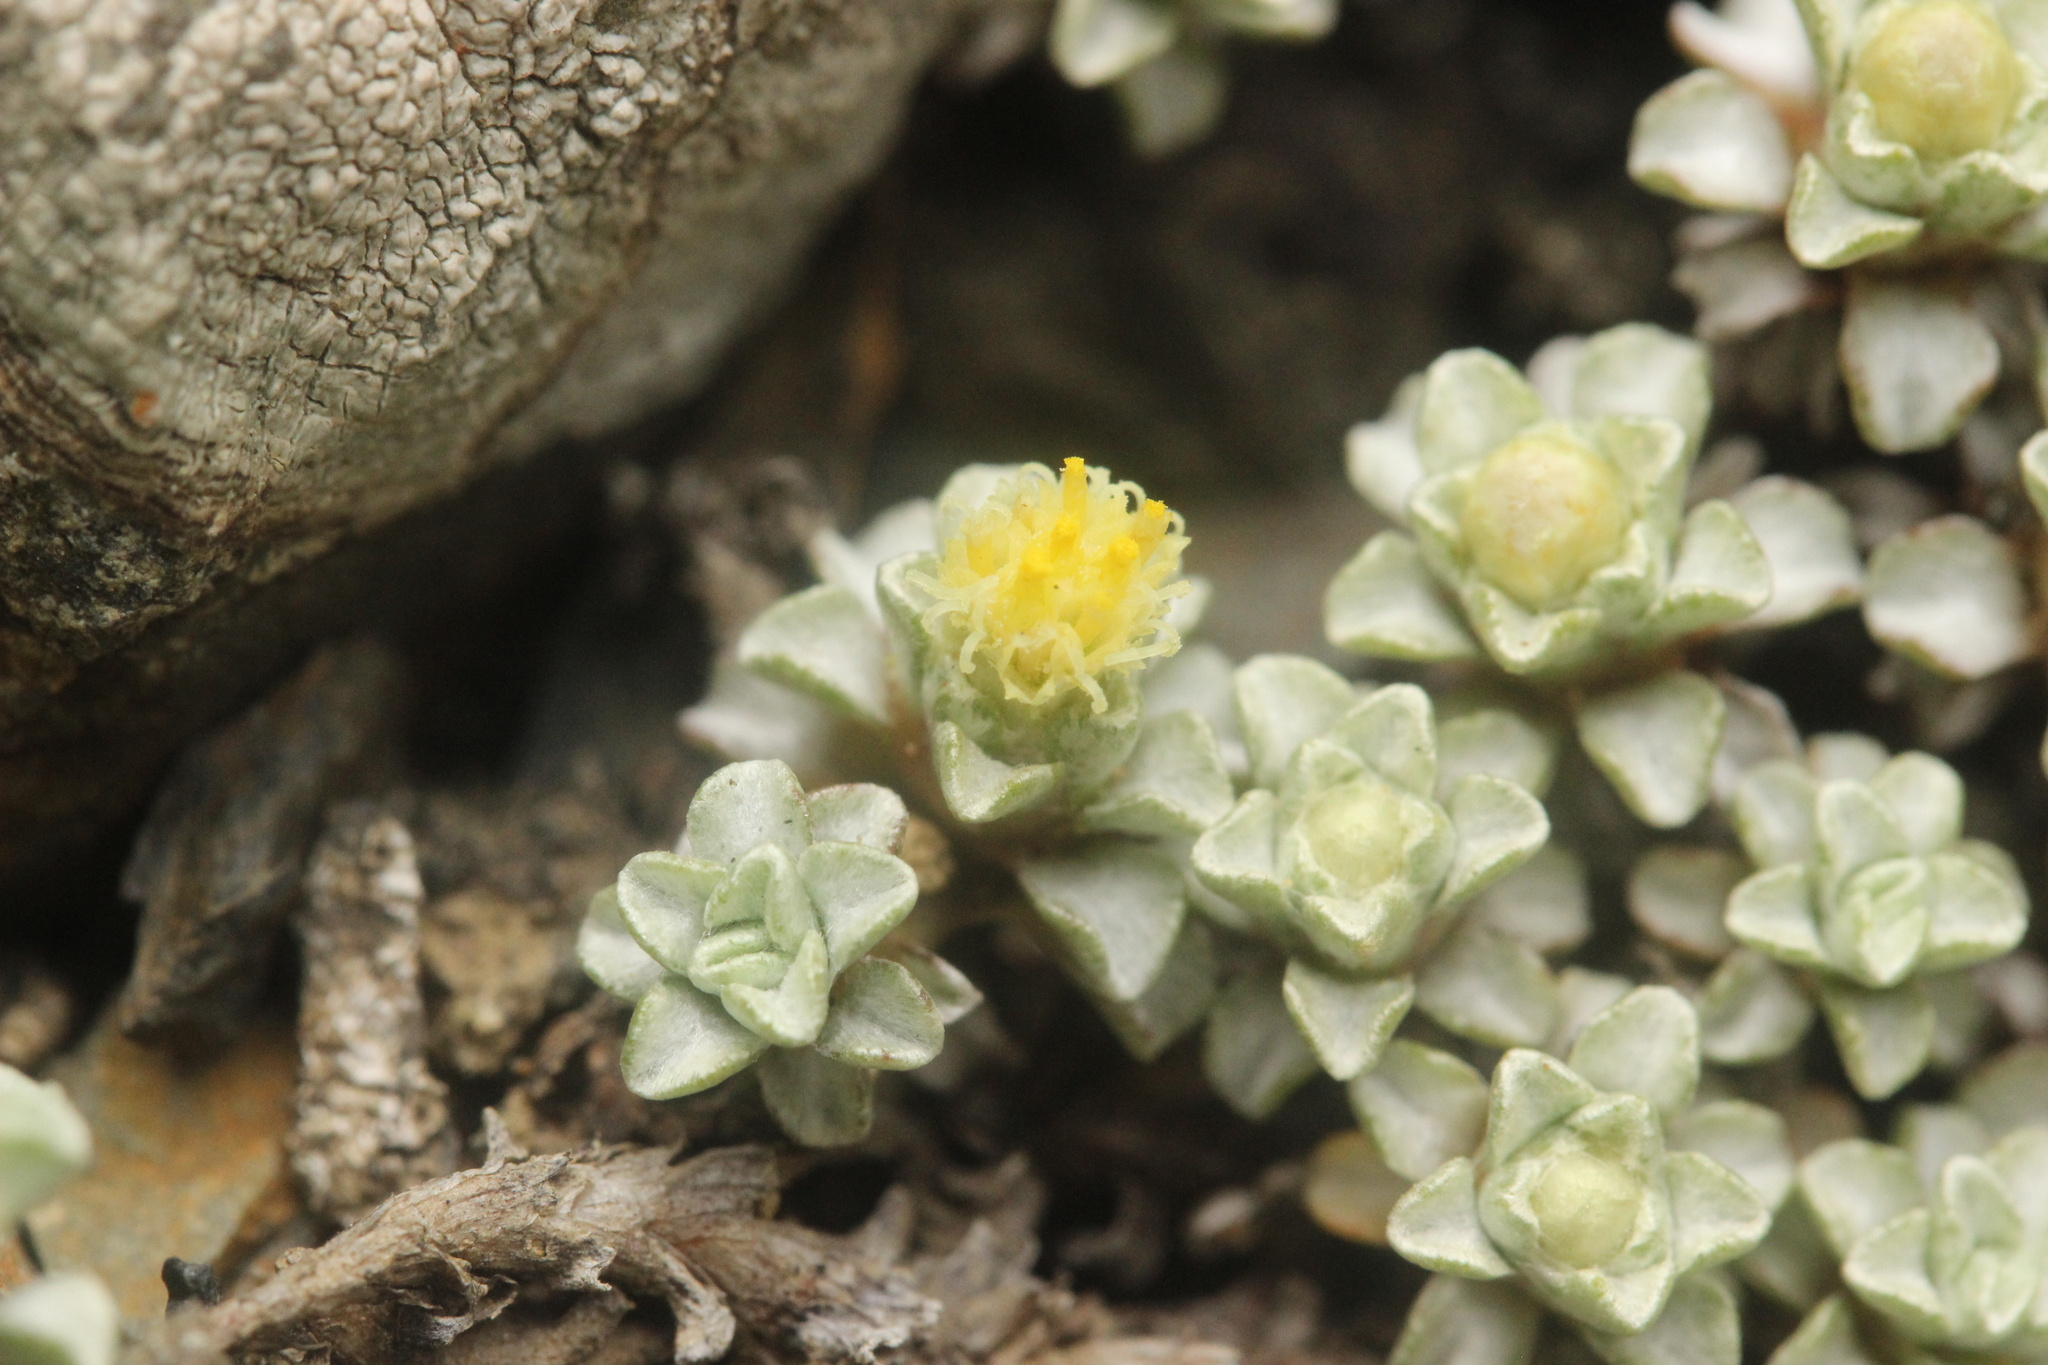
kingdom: Plantae
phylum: Tracheophyta
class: Magnoliopsida
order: Asterales
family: Asteraceae
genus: Raoulia
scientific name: Raoulia hookeri
